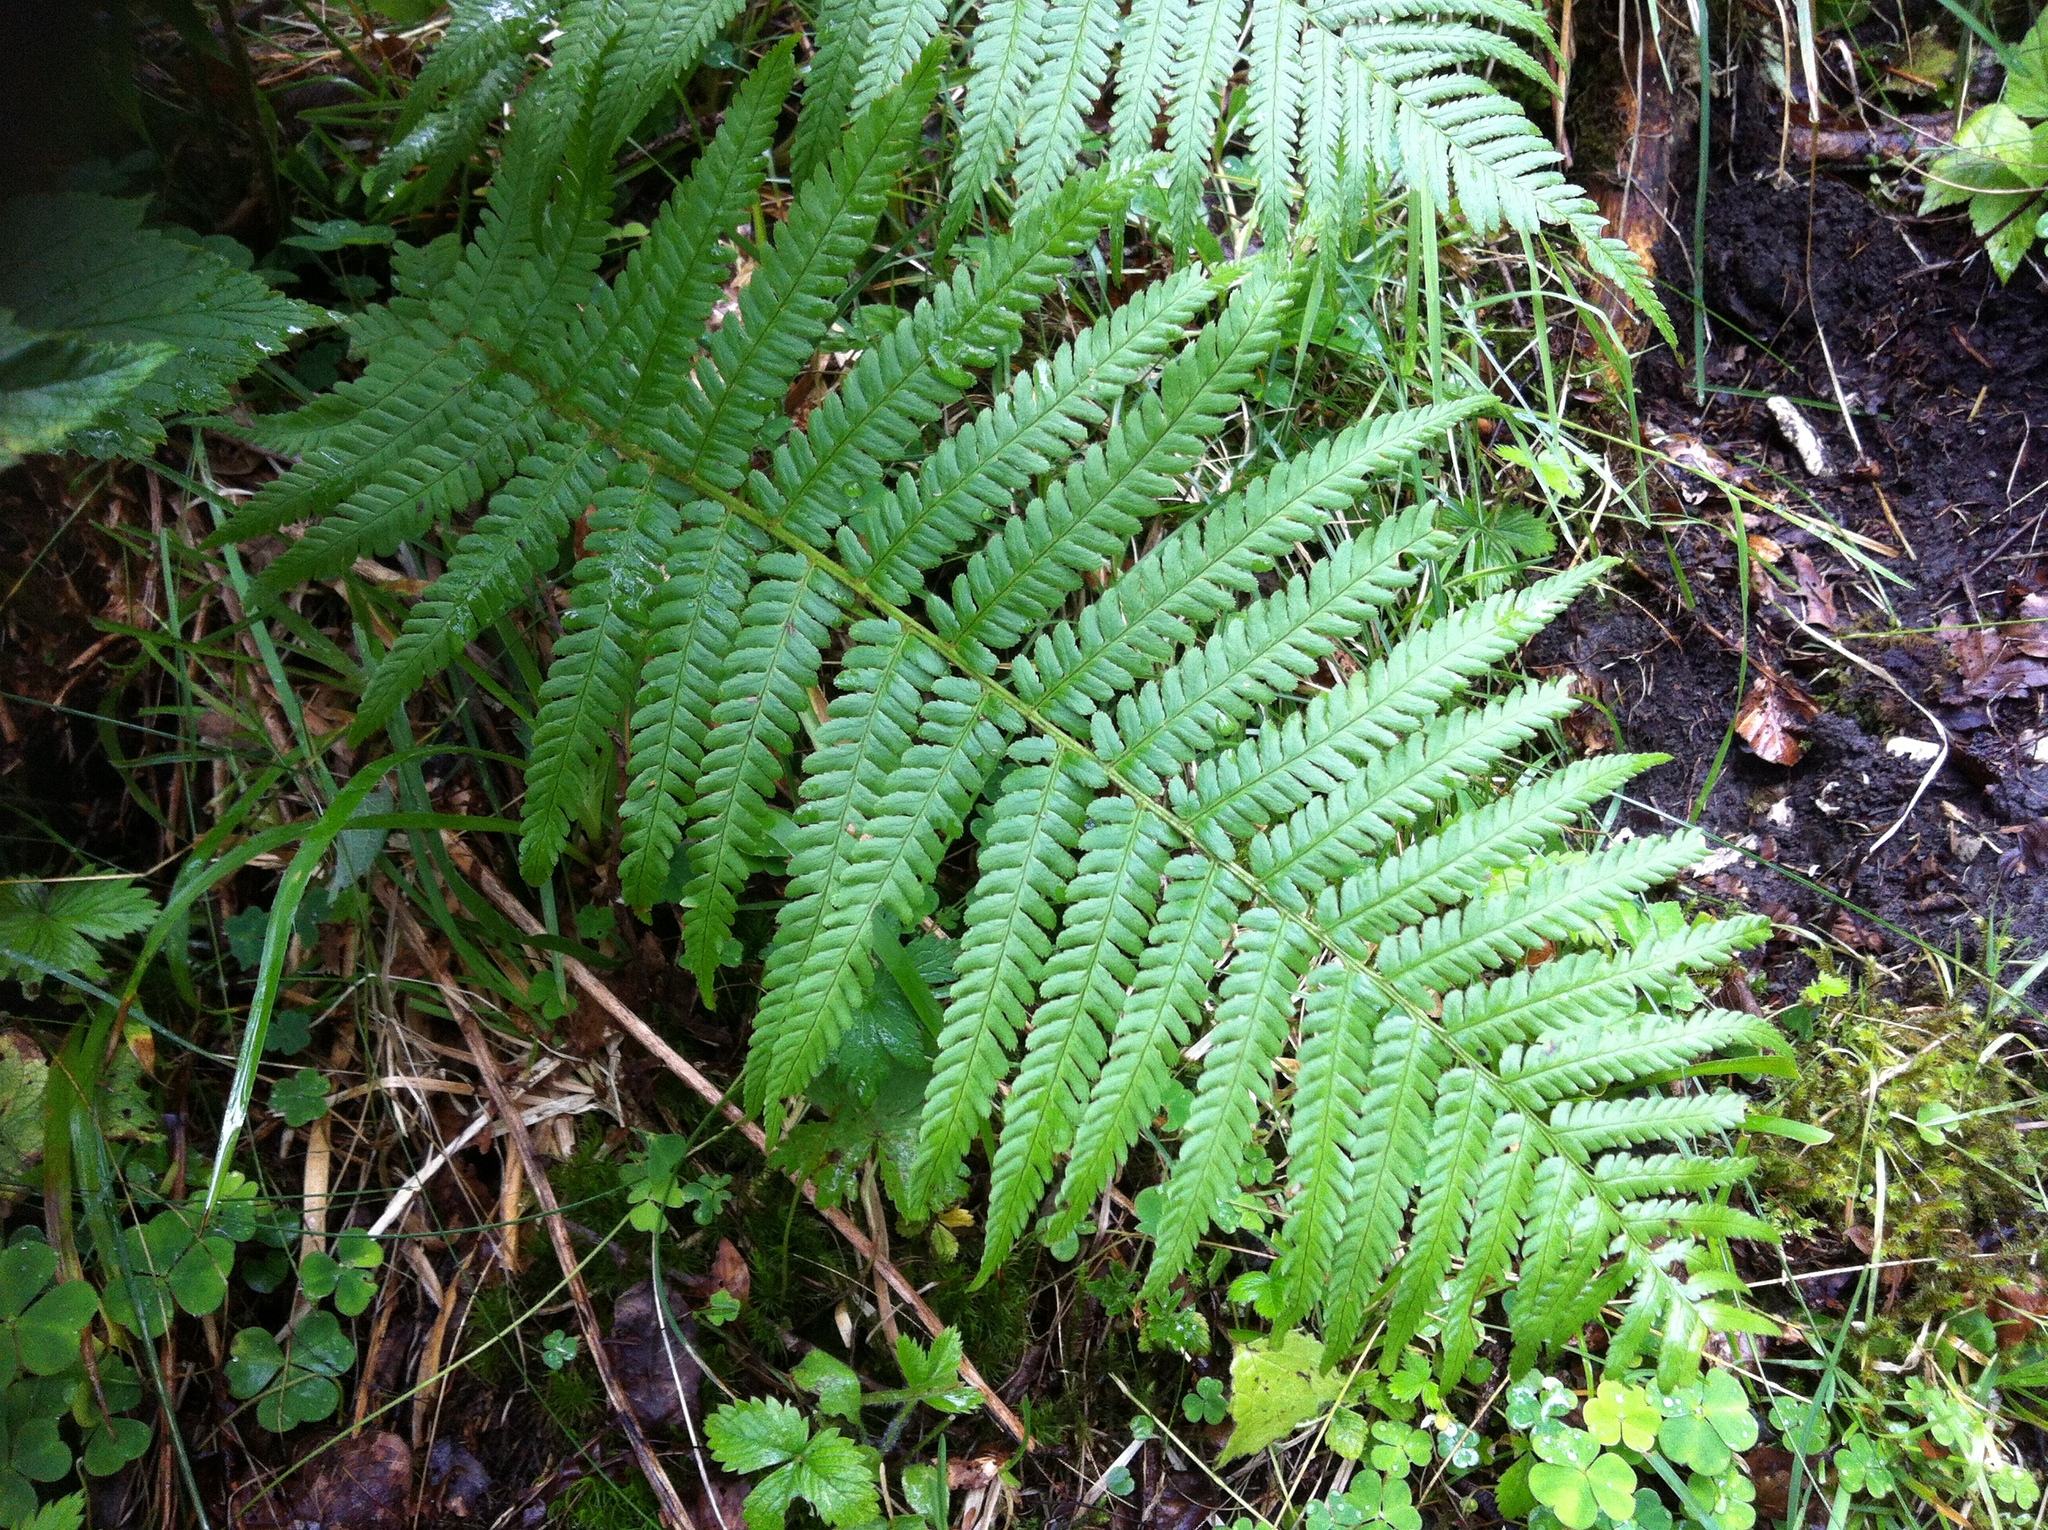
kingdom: Plantae
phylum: Tracheophyta
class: Polypodiopsida
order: Polypodiales
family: Dryopteridaceae
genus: Dryopteris
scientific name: Dryopteris filix-mas
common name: Male fern
